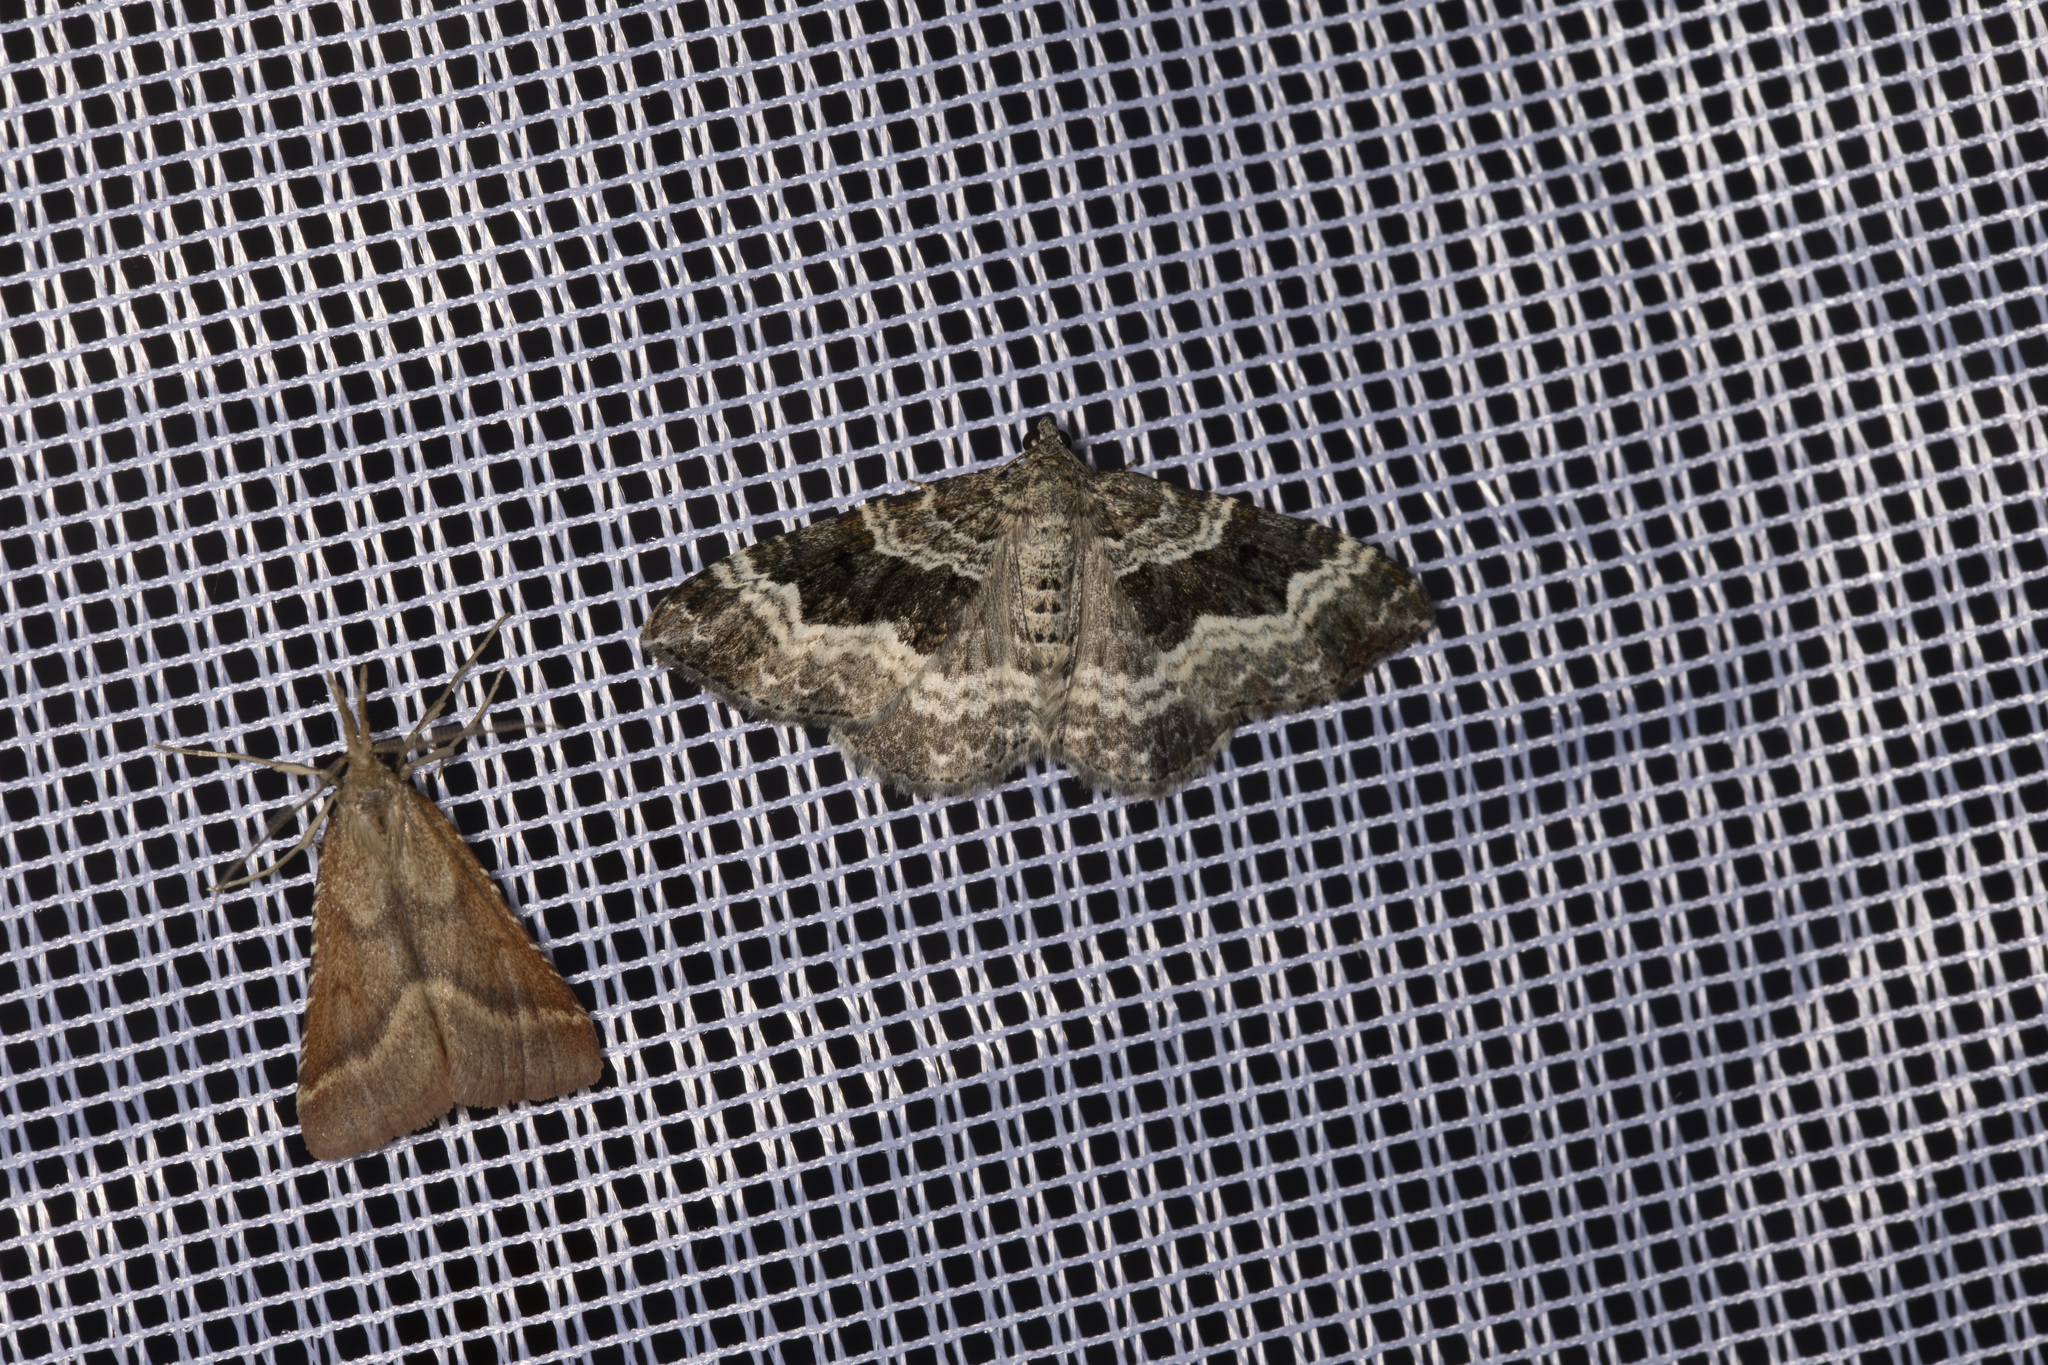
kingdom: Animalia
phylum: Arthropoda
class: Insecta
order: Lepidoptera
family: Pyralidae
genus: Synaphe
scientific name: Synaphe punctalis
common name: Long-legged tabby
